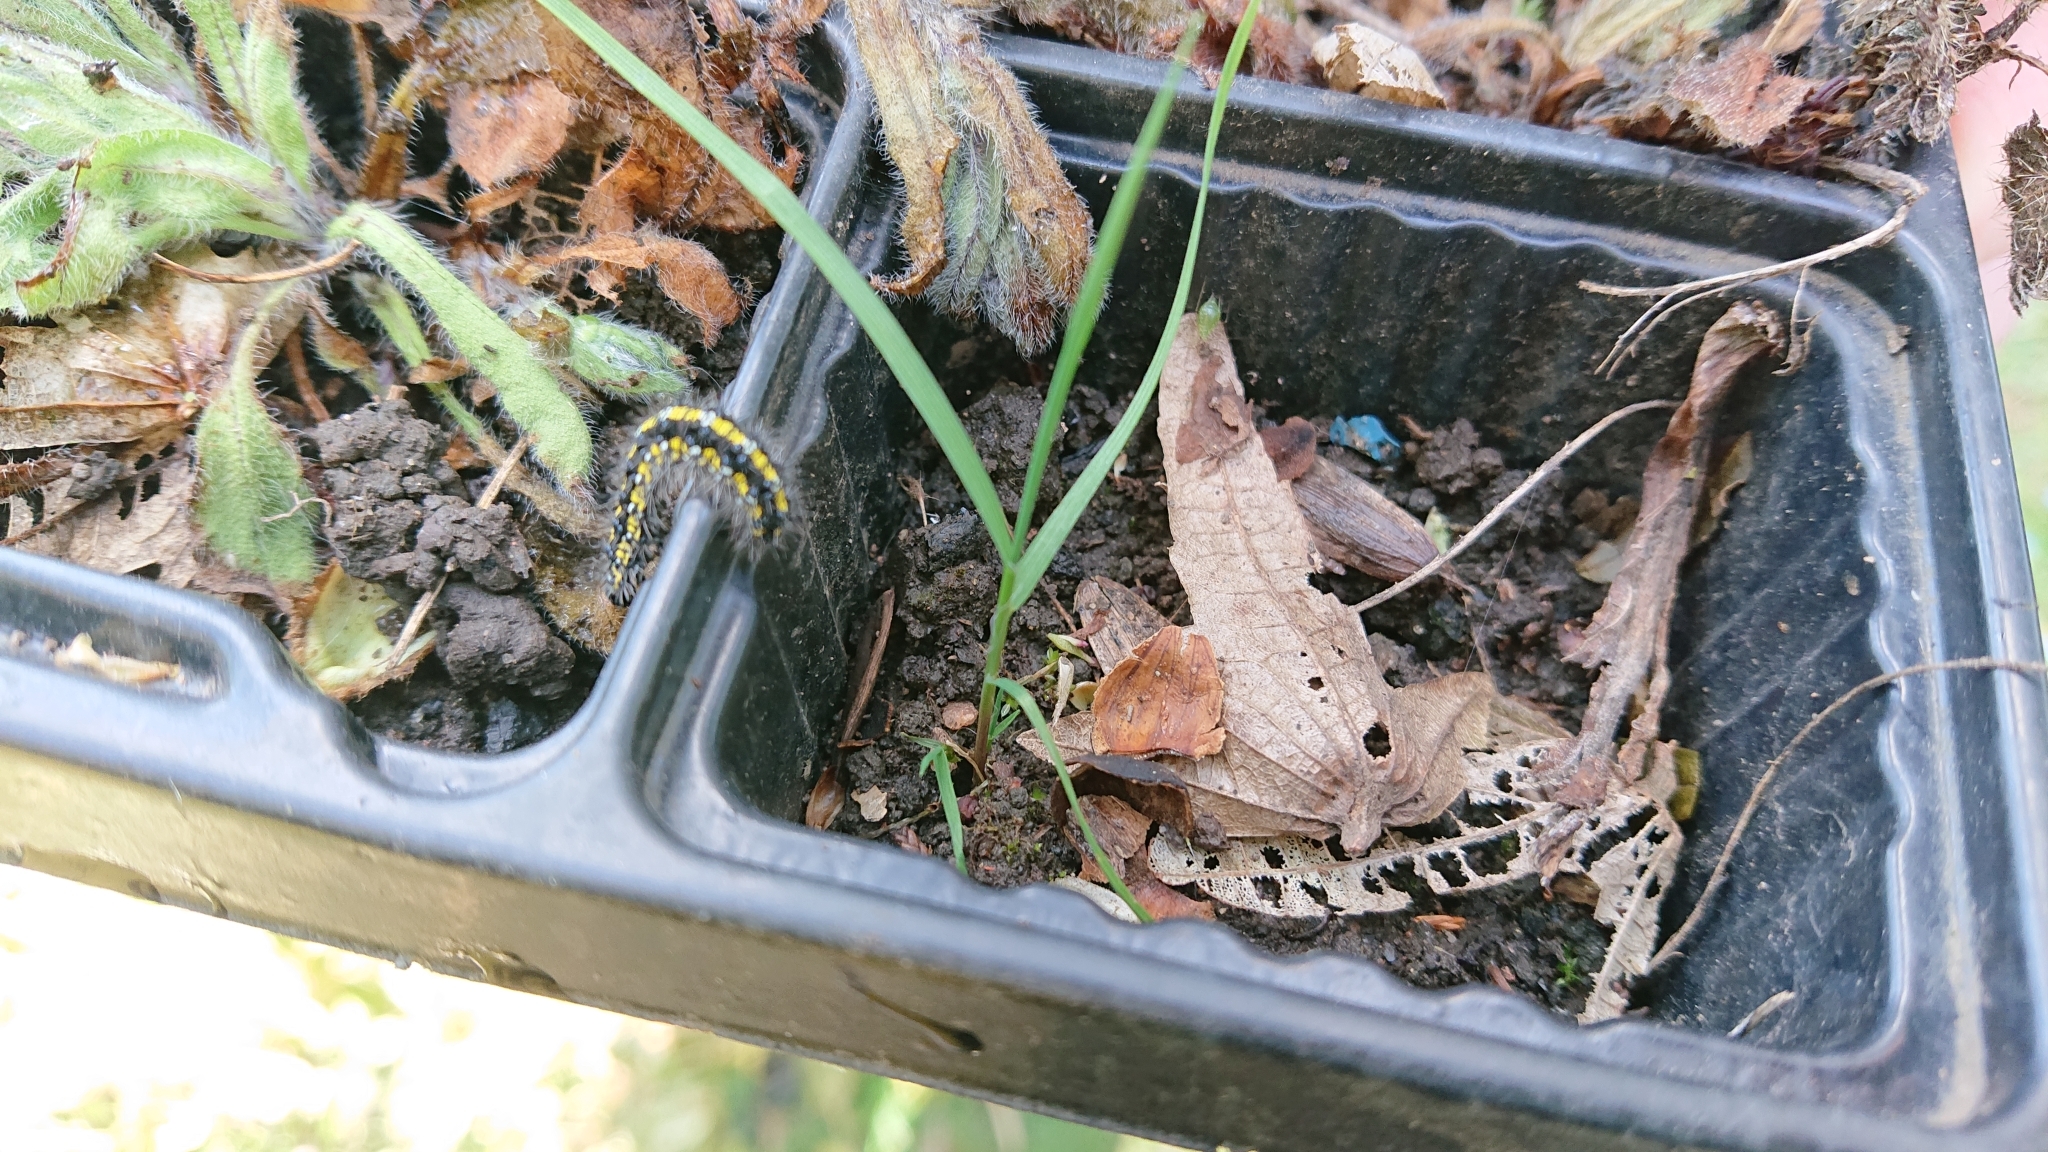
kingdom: Animalia
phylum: Arthropoda
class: Insecta
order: Lepidoptera
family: Erebidae
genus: Callimorpha
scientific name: Callimorpha dominula
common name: Scarlet tiger
